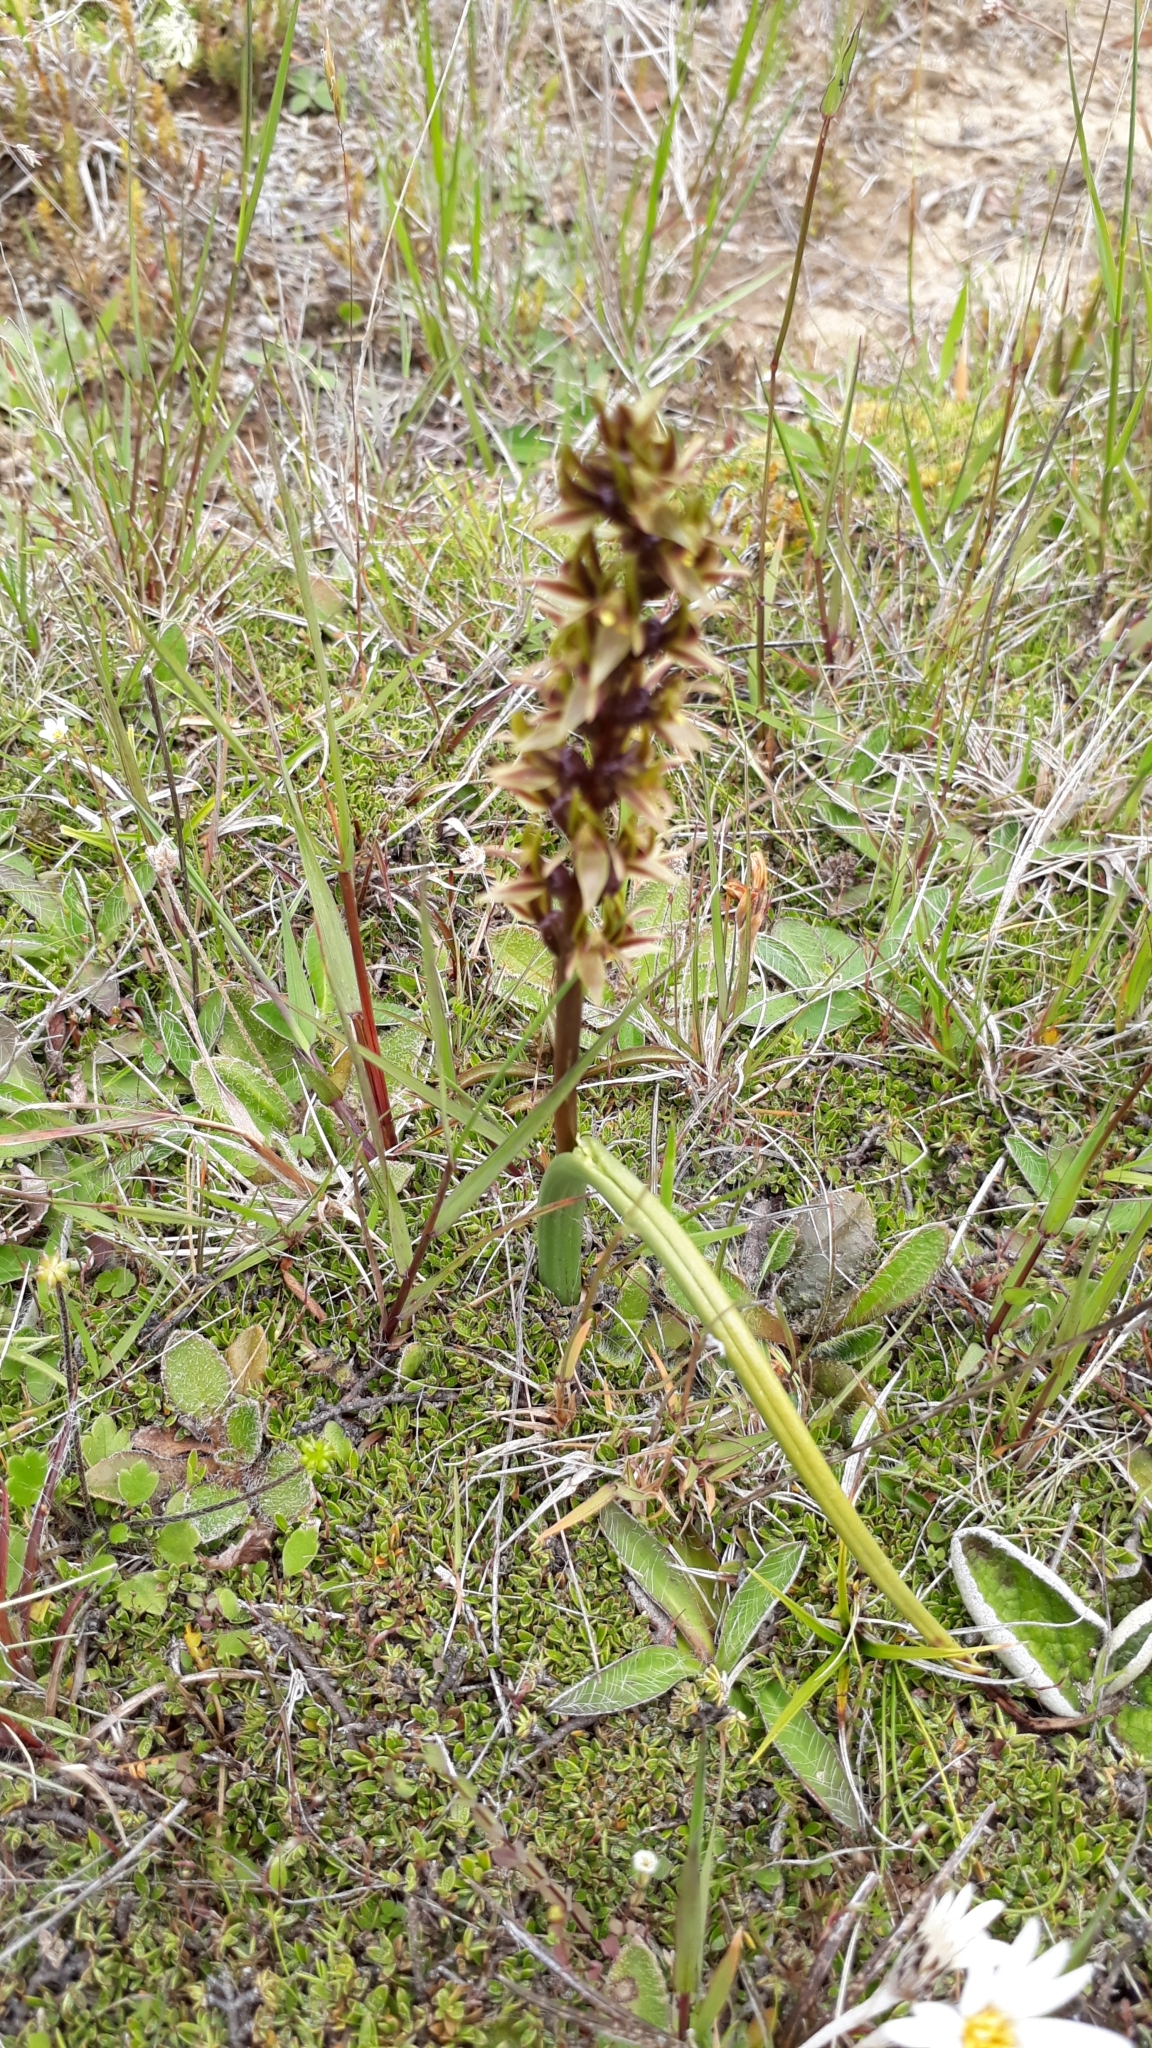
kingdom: Plantae
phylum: Tracheophyta
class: Liliopsida
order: Asparagales
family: Orchidaceae
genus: Prasophyllum
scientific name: Prasophyllum colensoi
